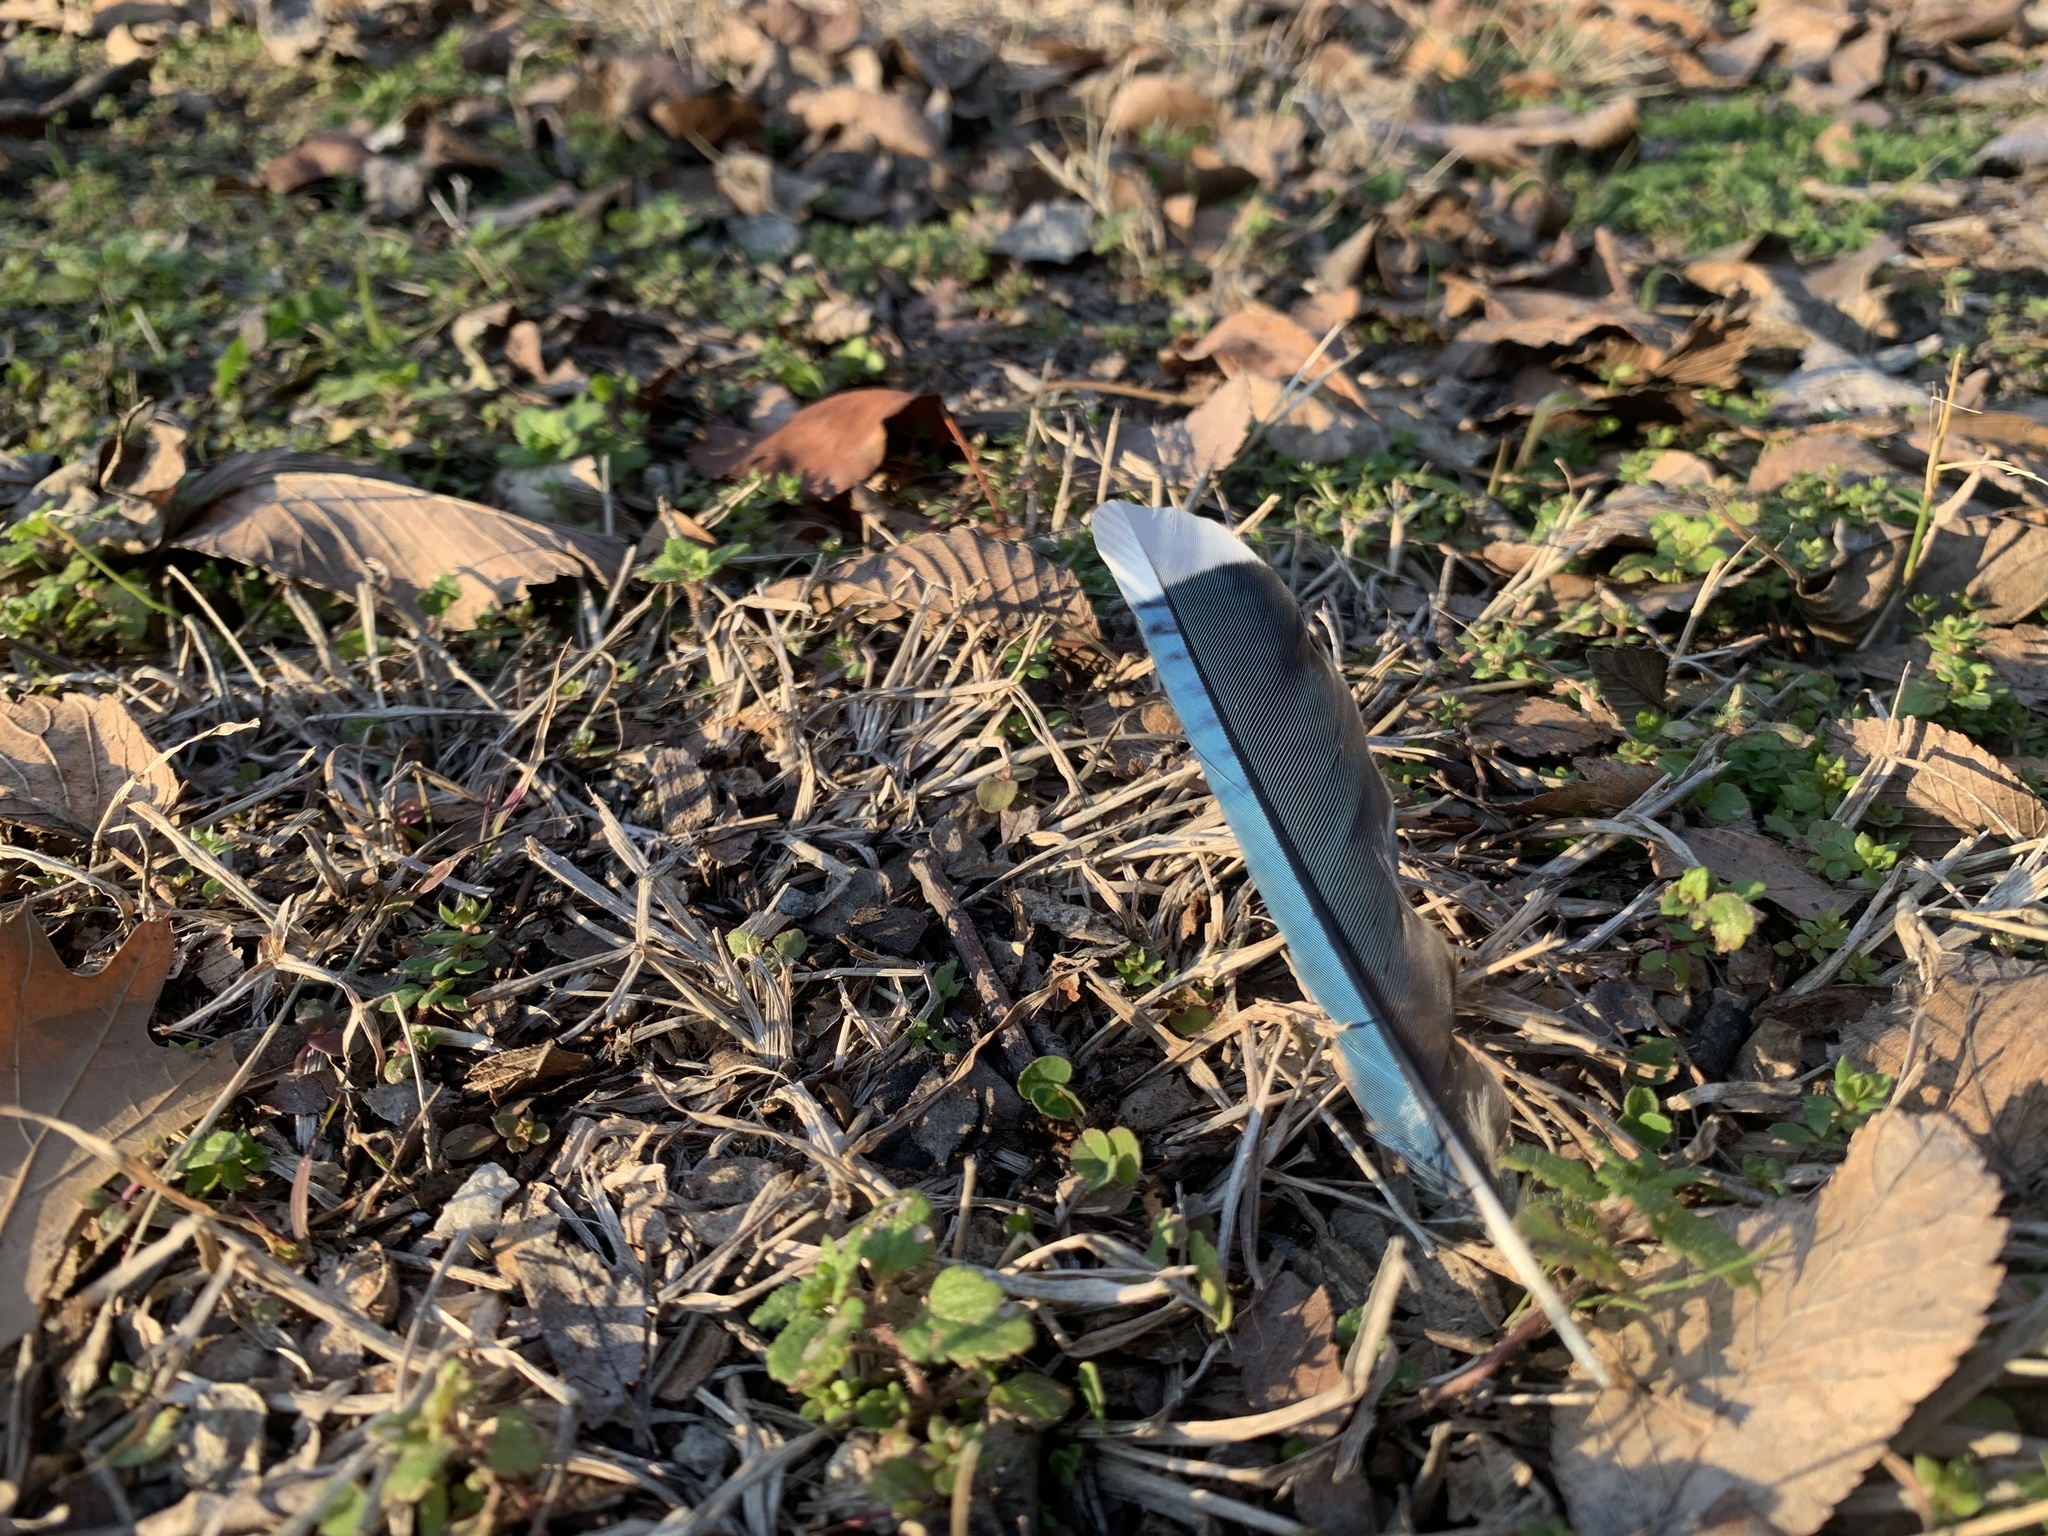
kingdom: Animalia
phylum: Chordata
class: Aves
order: Passeriformes
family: Corvidae
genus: Cyanocitta
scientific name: Cyanocitta cristata
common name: Blue jay
